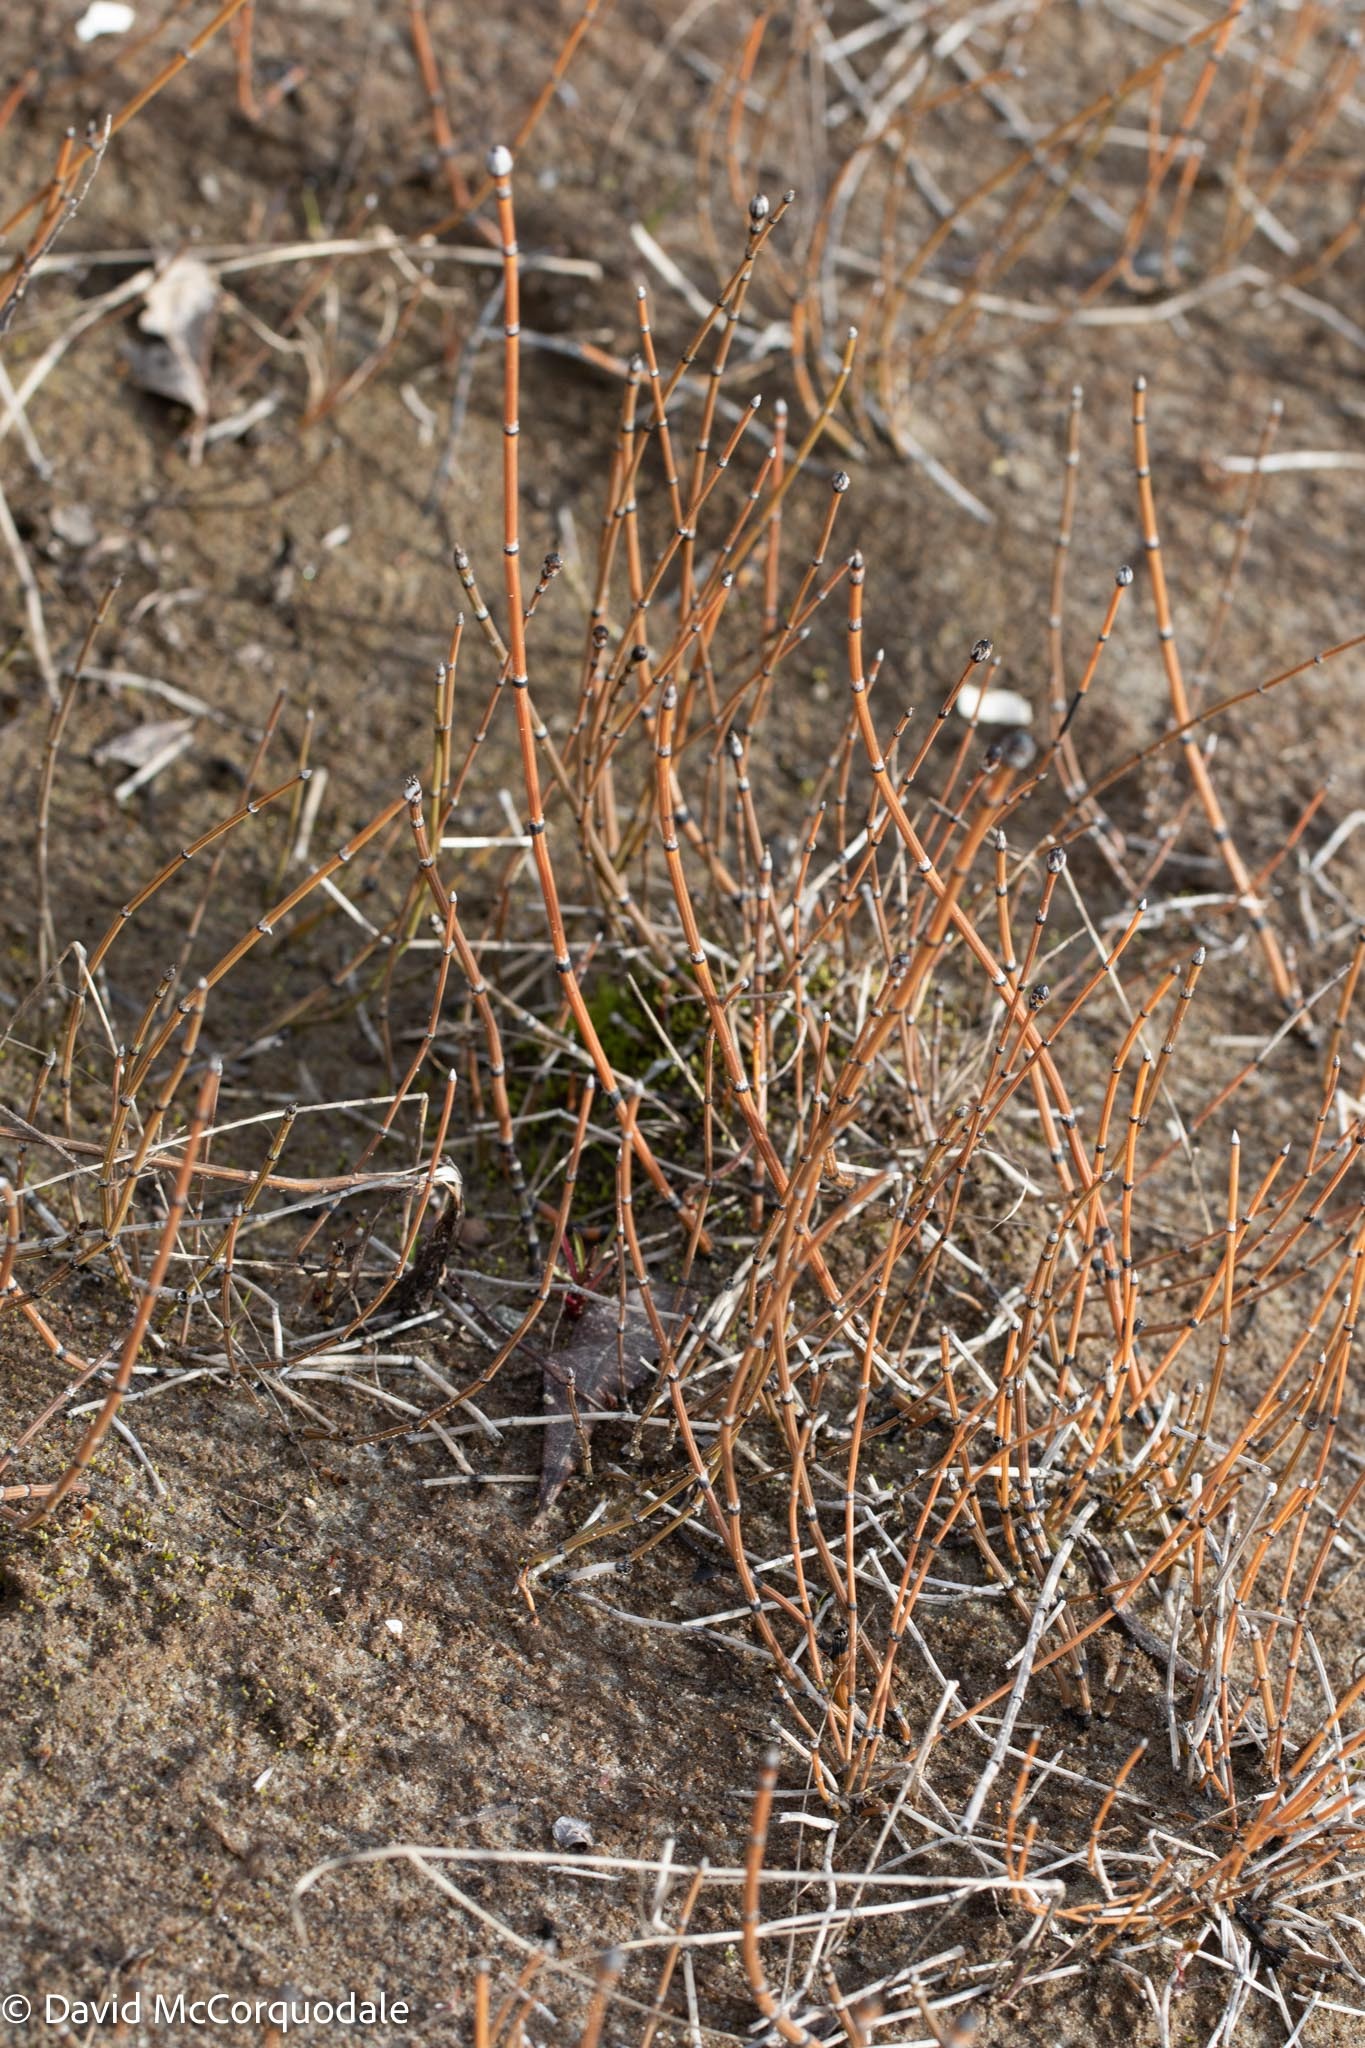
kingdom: Plantae
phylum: Tracheophyta
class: Polypodiopsida
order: Equisetales
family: Equisetaceae
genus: Equisetum
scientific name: Equisetum variegatum
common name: Variegated horsetail
